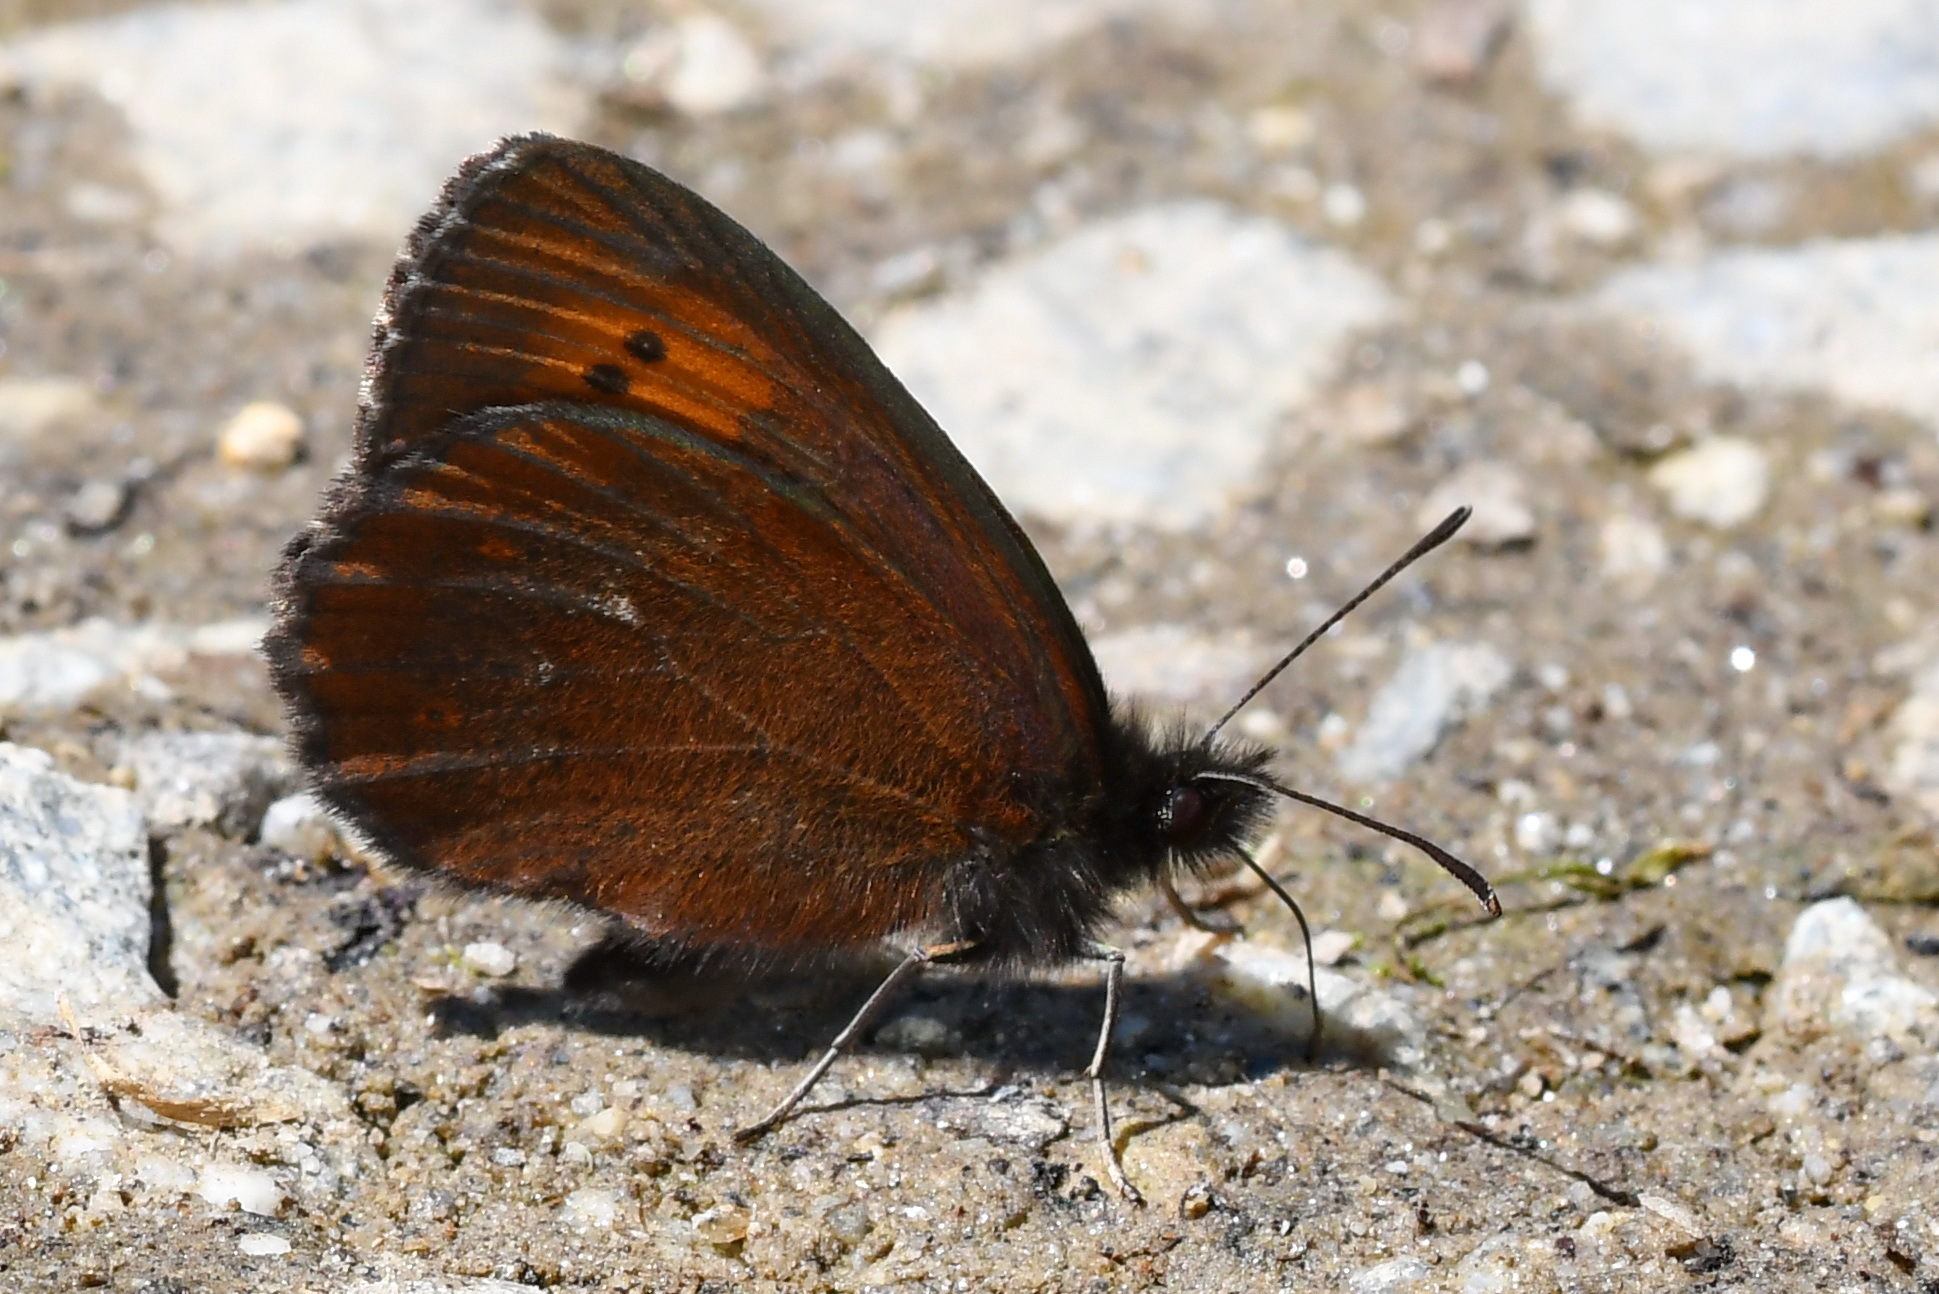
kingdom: Animalia
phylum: Arthropoda
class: Insecta
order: Lepidoptera
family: Nymphalidae
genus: Erebia
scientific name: Erebia euryale
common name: Large ringlet
